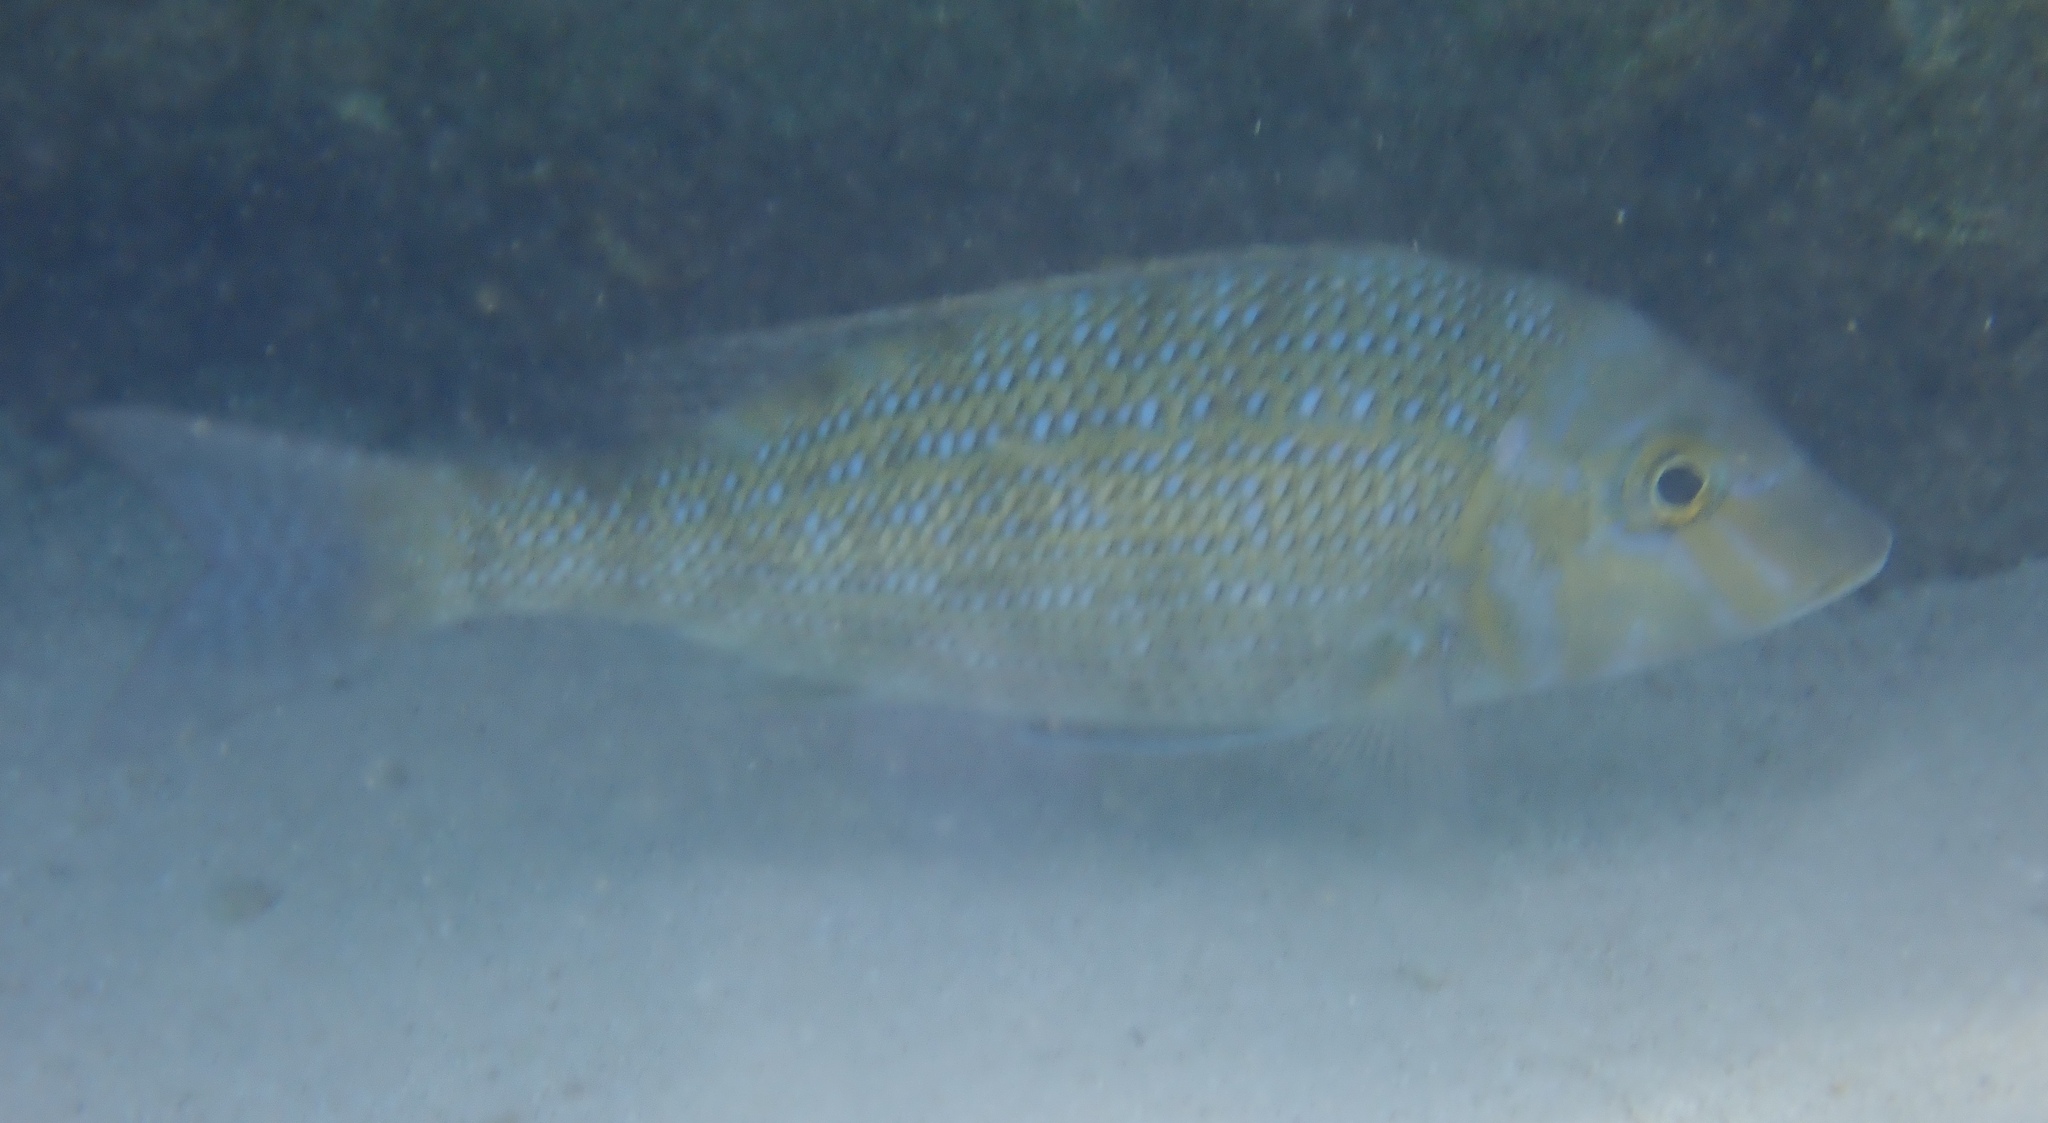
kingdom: Animalia
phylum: Chordata
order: Perciformes
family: Lethrinidae
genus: Lethrinus
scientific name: Lethrinus nebulosus
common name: Spangled emperor
